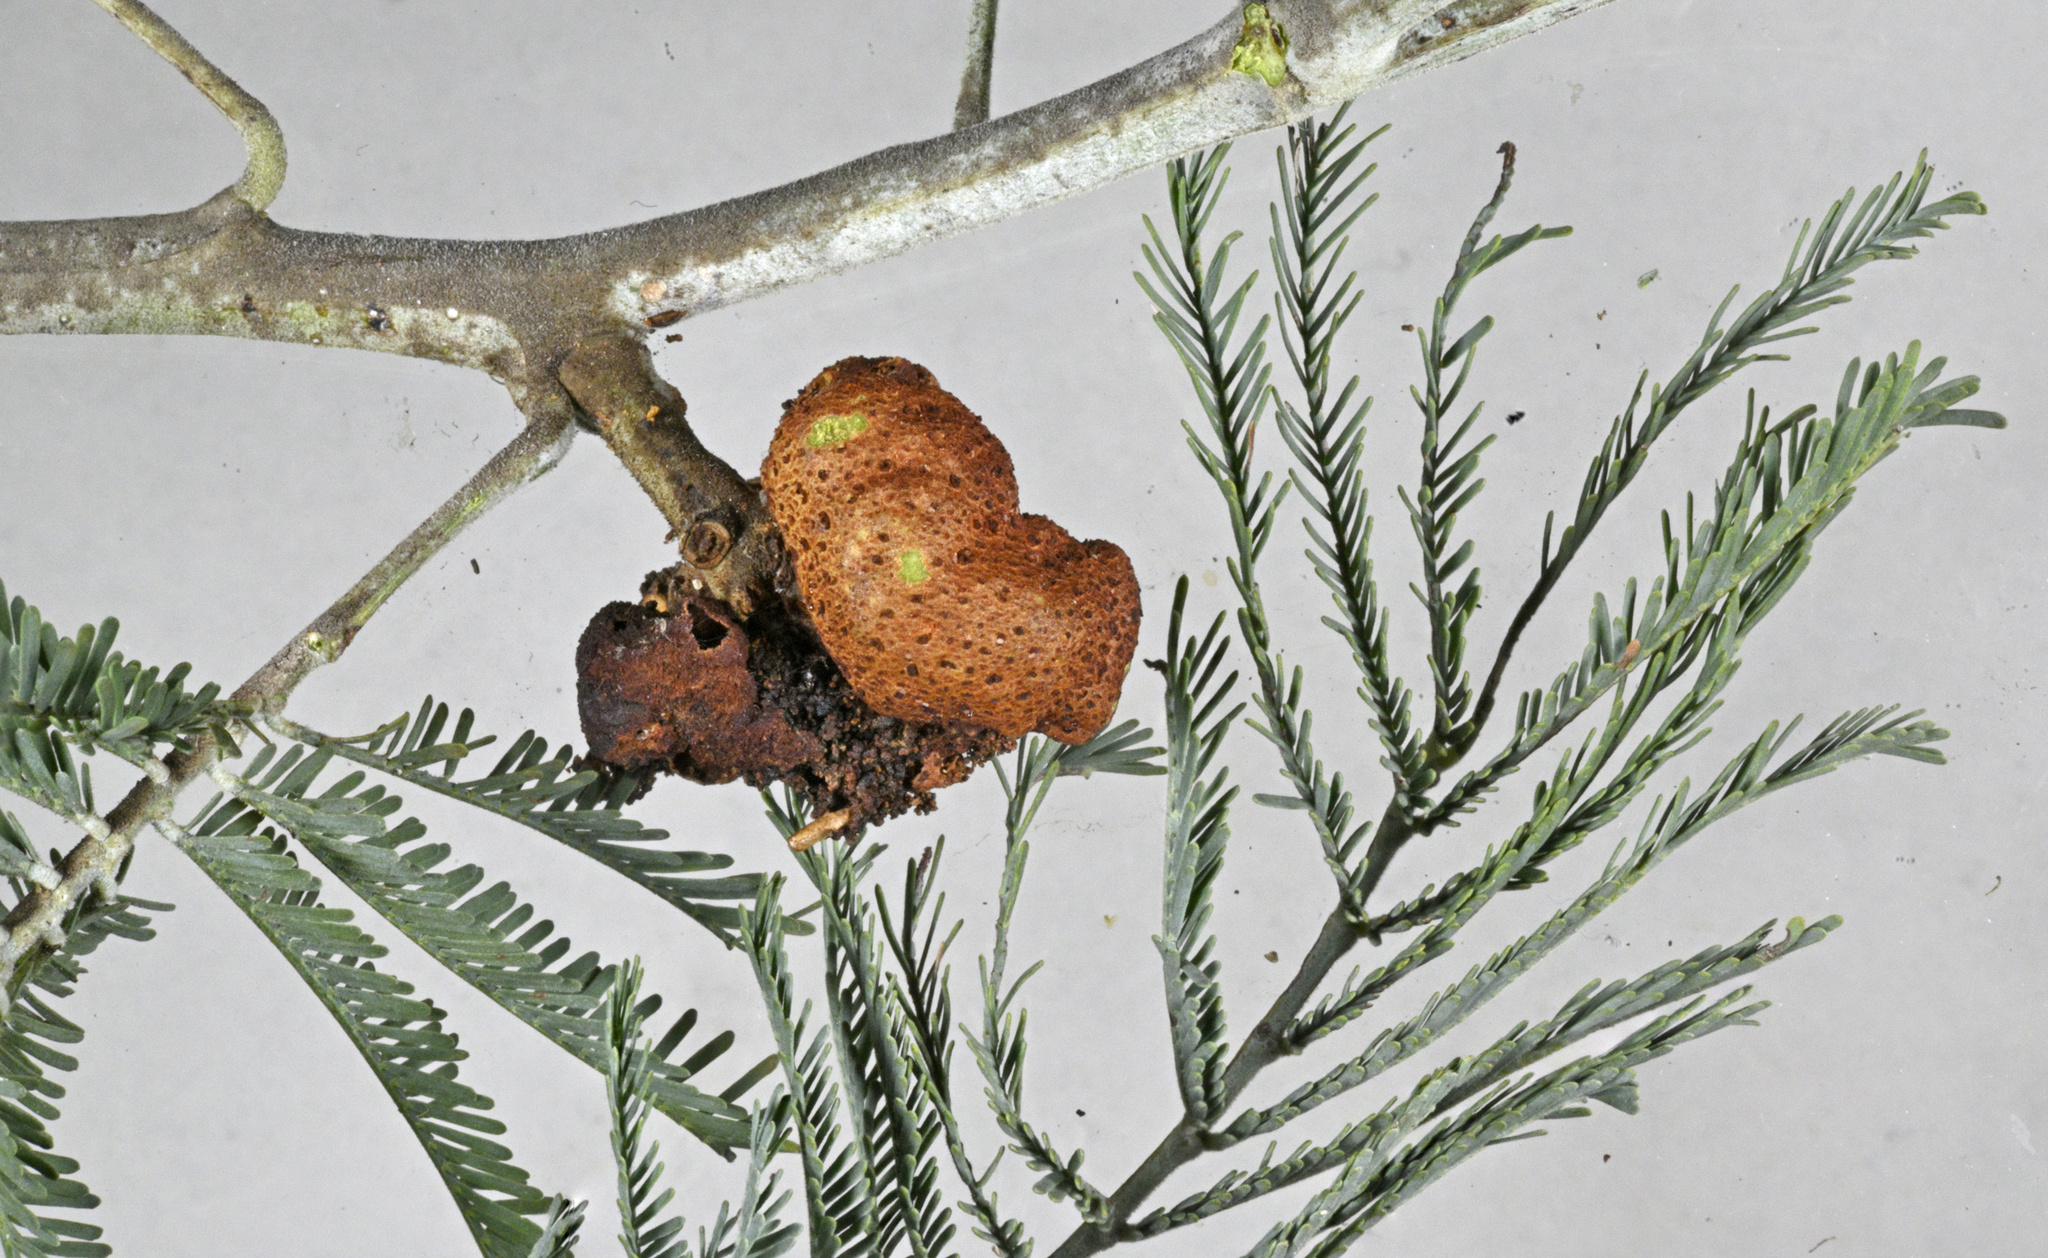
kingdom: Fungi
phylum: Basidiomycota
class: Pucciniomycetes
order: Pucciniales
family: Uromycladiaceae
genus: Uromycladium
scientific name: Uromycladium murphyi
